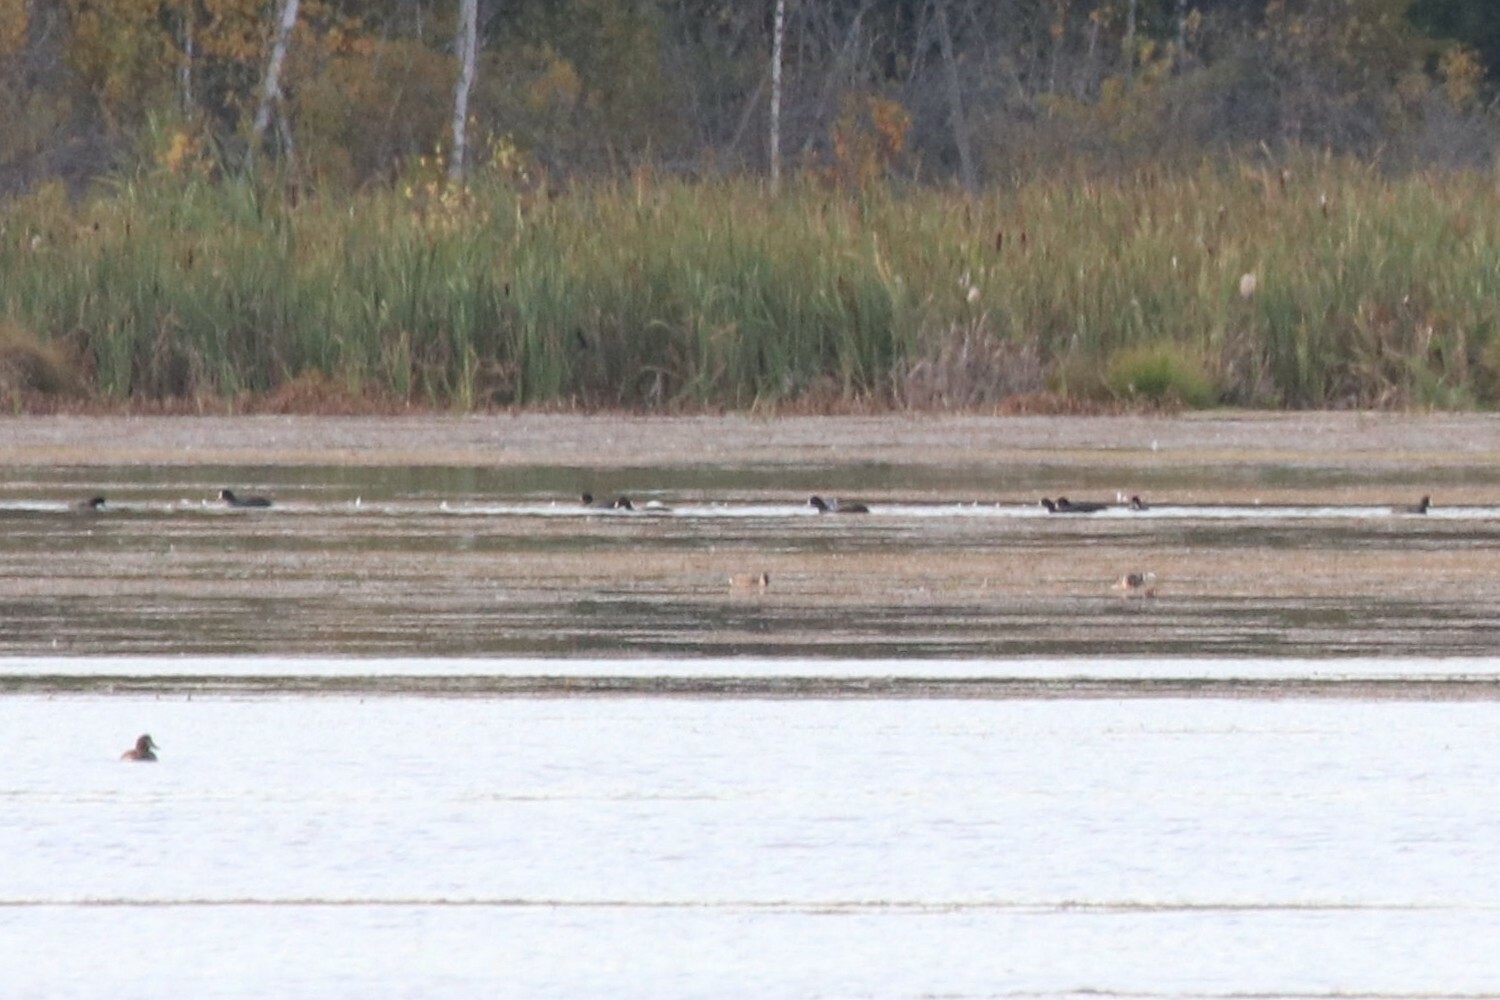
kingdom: Animalia
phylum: Chordata
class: Aves
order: Gruiformes
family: Rallidae
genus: Fulica
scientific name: Fulica atra
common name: Eurasian coot
